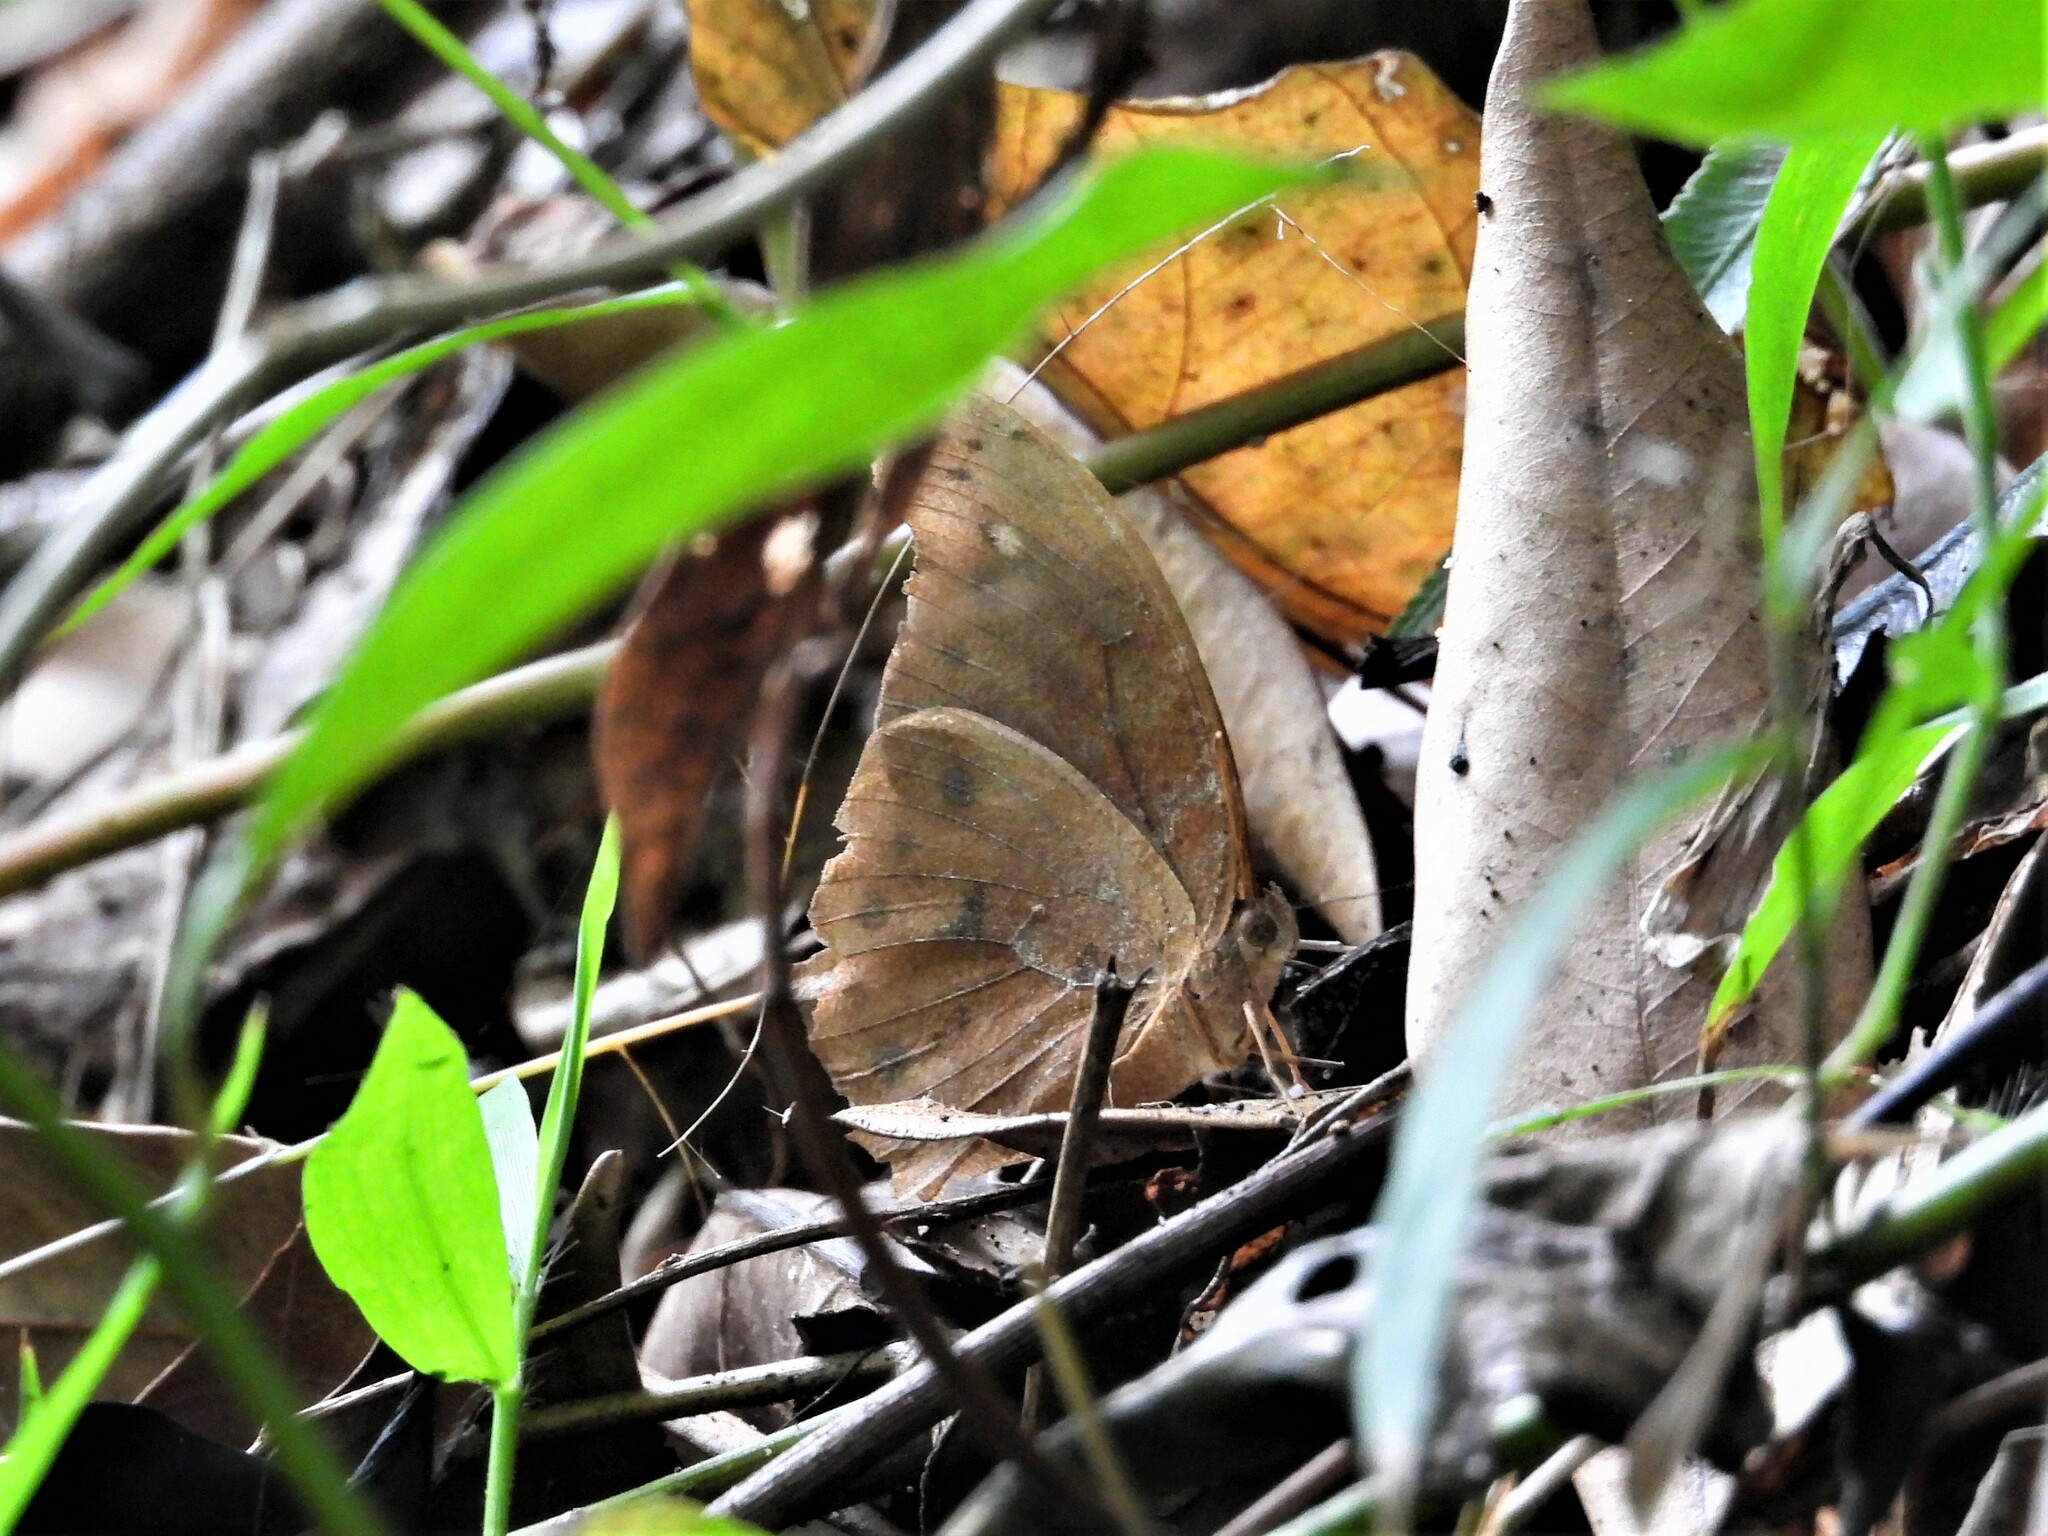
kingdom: Animalia
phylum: Arthropoda
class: Insecta
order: Lepidoptera
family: Nymphalidae
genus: Melanitis
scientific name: Melanitis phedima
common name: Dark evening brown
